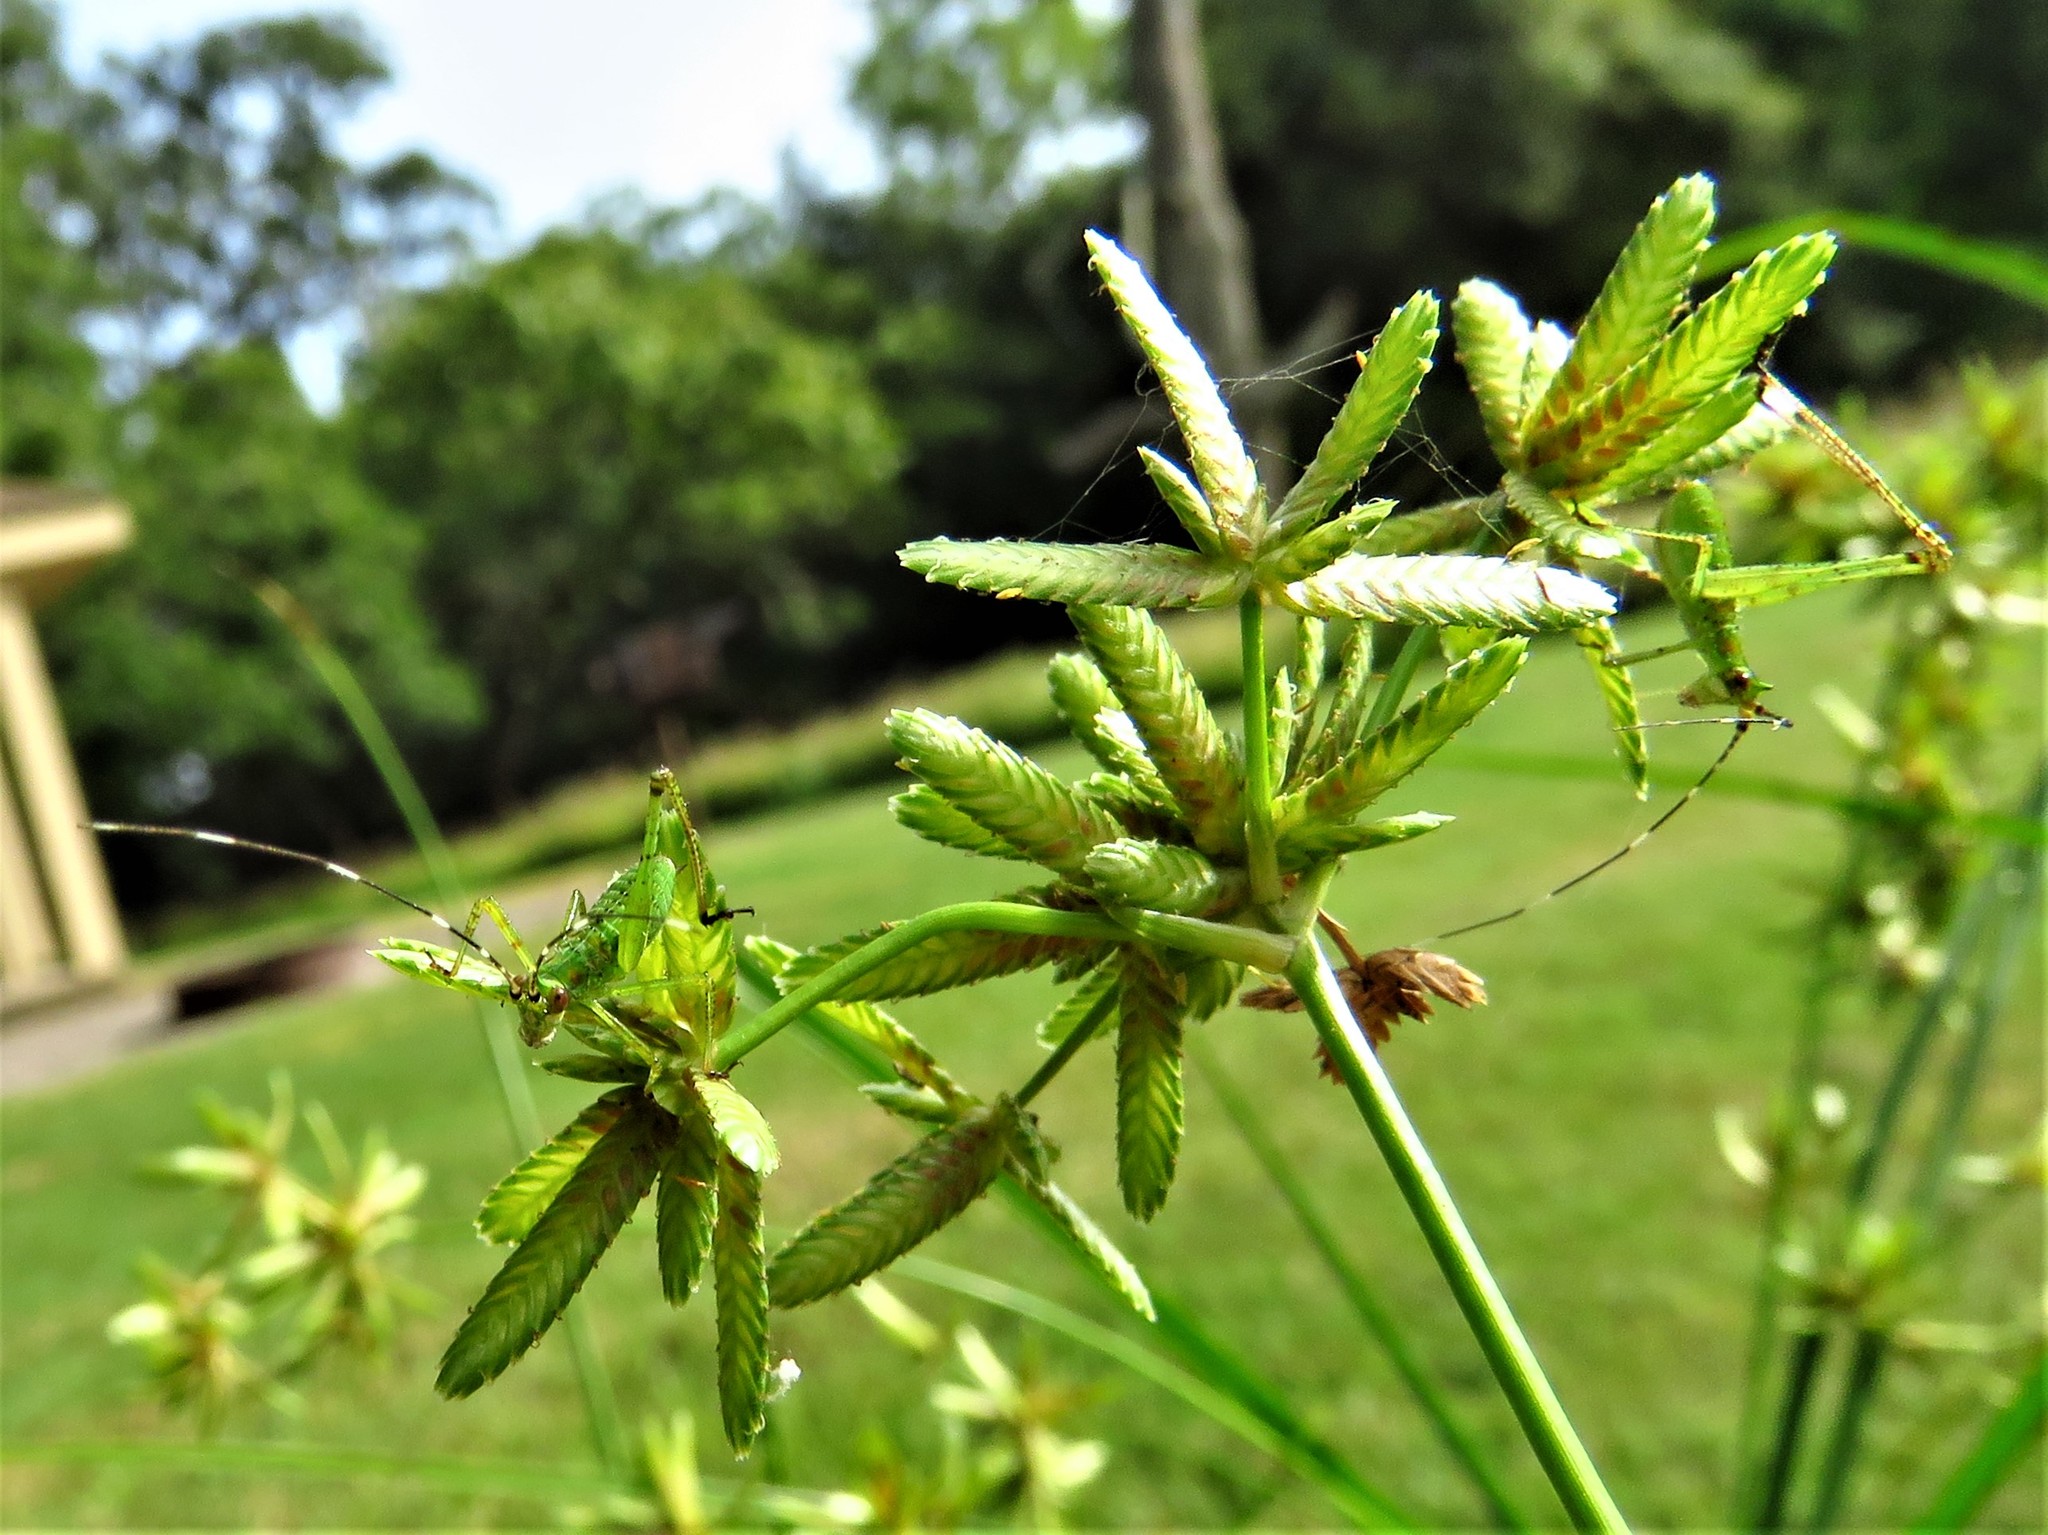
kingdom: Plantae
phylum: Tracheophyta
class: Liliopsida
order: Poales
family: Cyperaceae
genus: Cyperus
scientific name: Cyperus ochraceus
